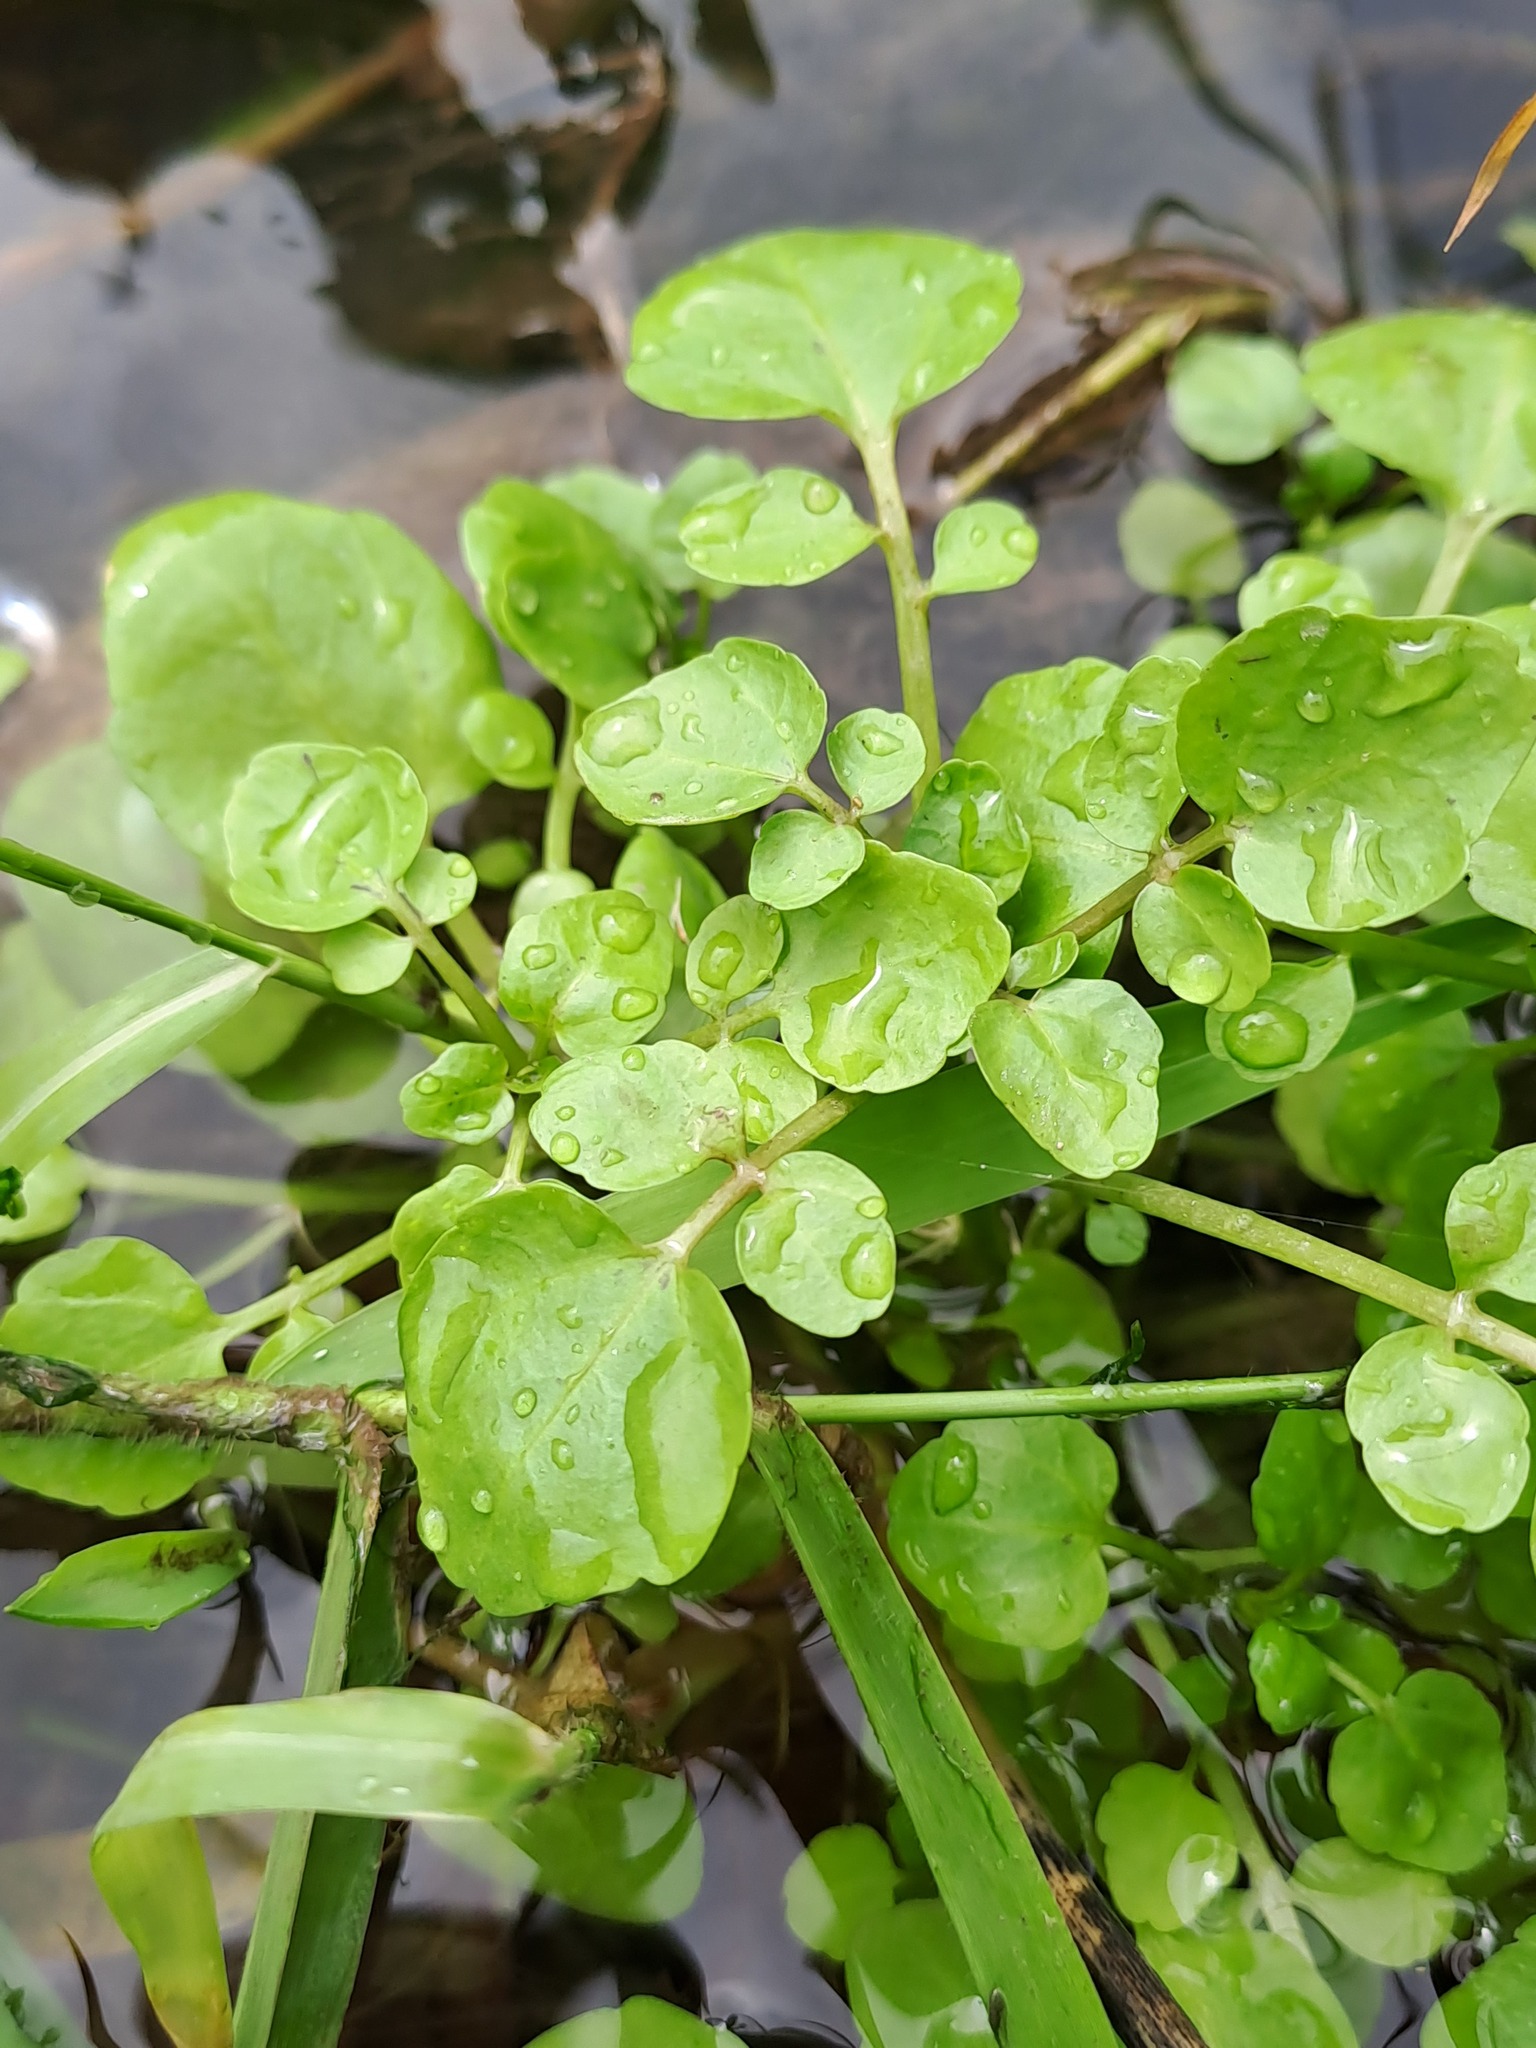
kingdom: Plantae
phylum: Tracheophyta
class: Magnoliopsida
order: Brassicales
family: Brassicaceae
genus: Nasturtium
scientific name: Nasturtium officinale
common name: Watercress
